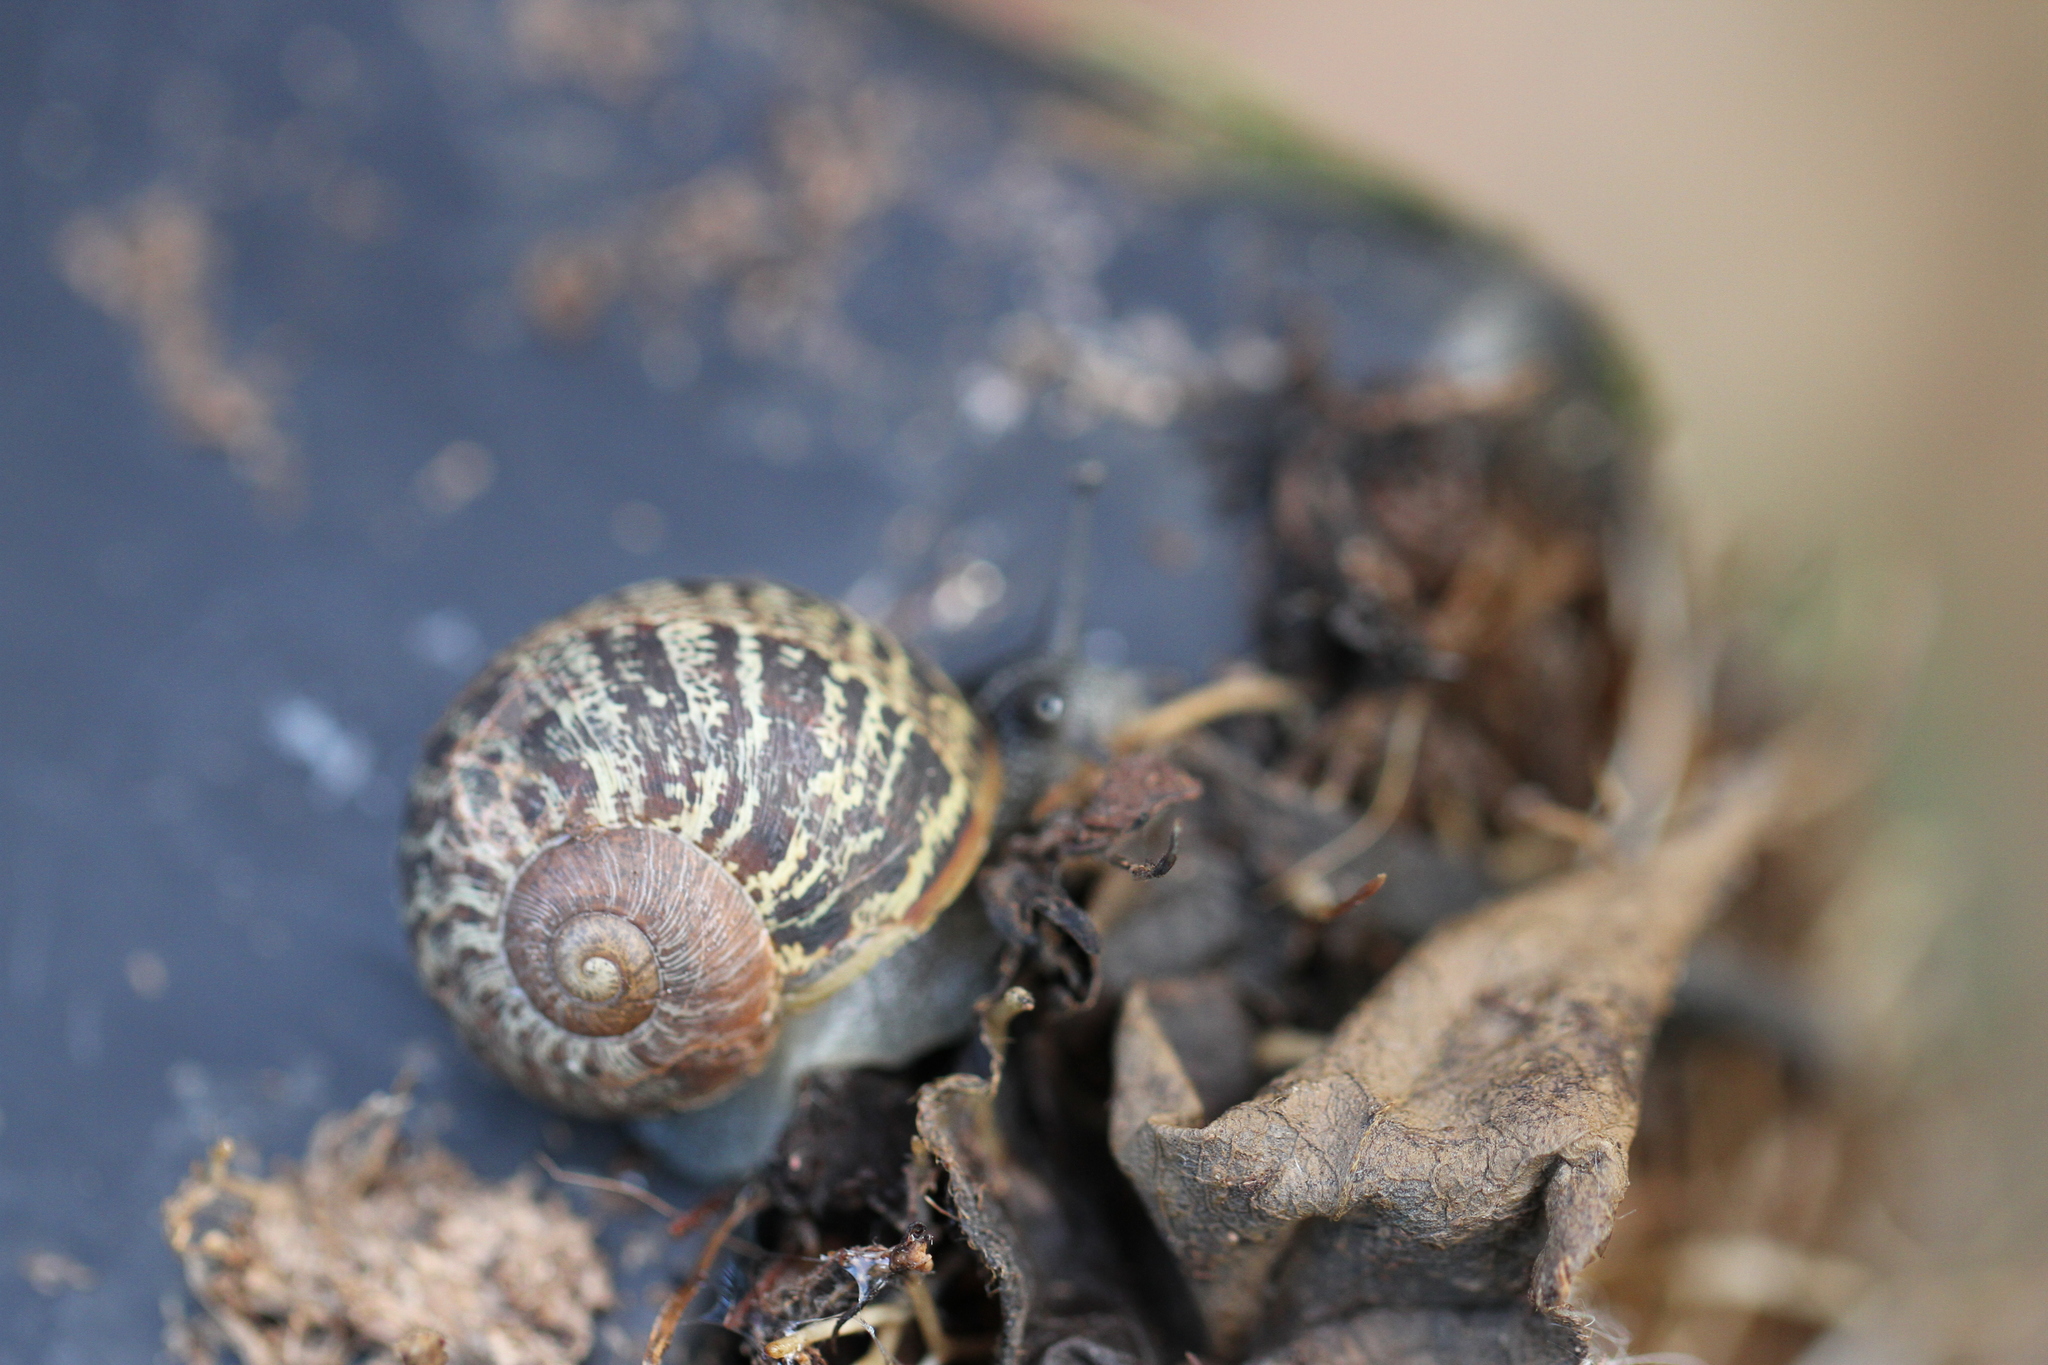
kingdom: Animalia
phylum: Mollusca
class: Gastropoda
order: Stylommatophora
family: Helicidae
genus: Cornu
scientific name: Cornu aspersum
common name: Brown garden snail
